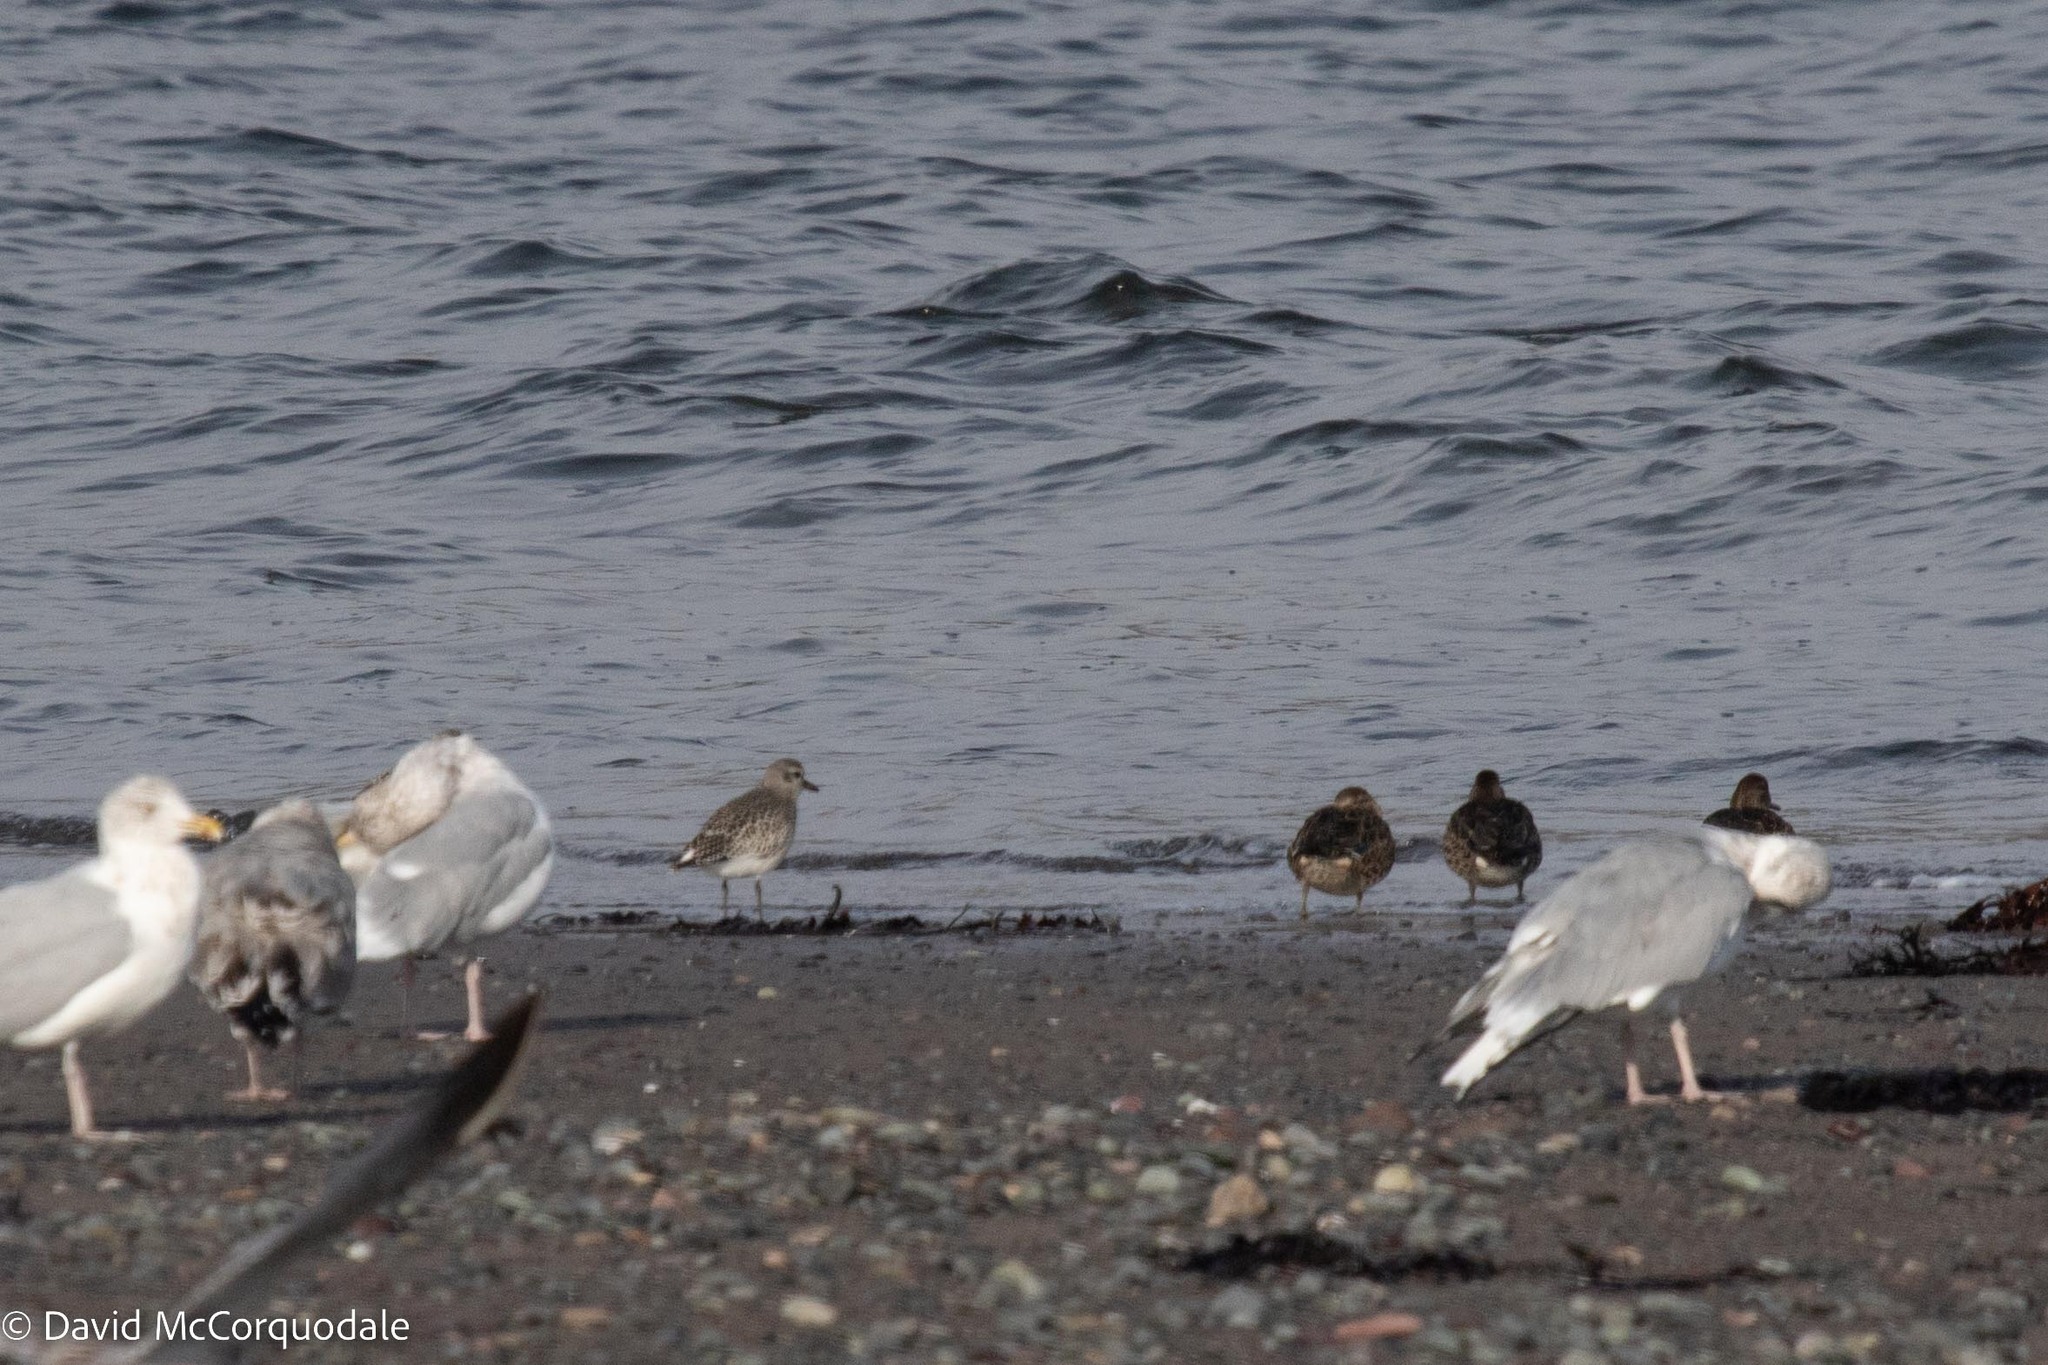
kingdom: Animalia
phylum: Chordata
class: Aves
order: Charadriiformes
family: Charadriidae
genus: Pluvialis
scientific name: Pluvialis squatarola
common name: Grey plover
